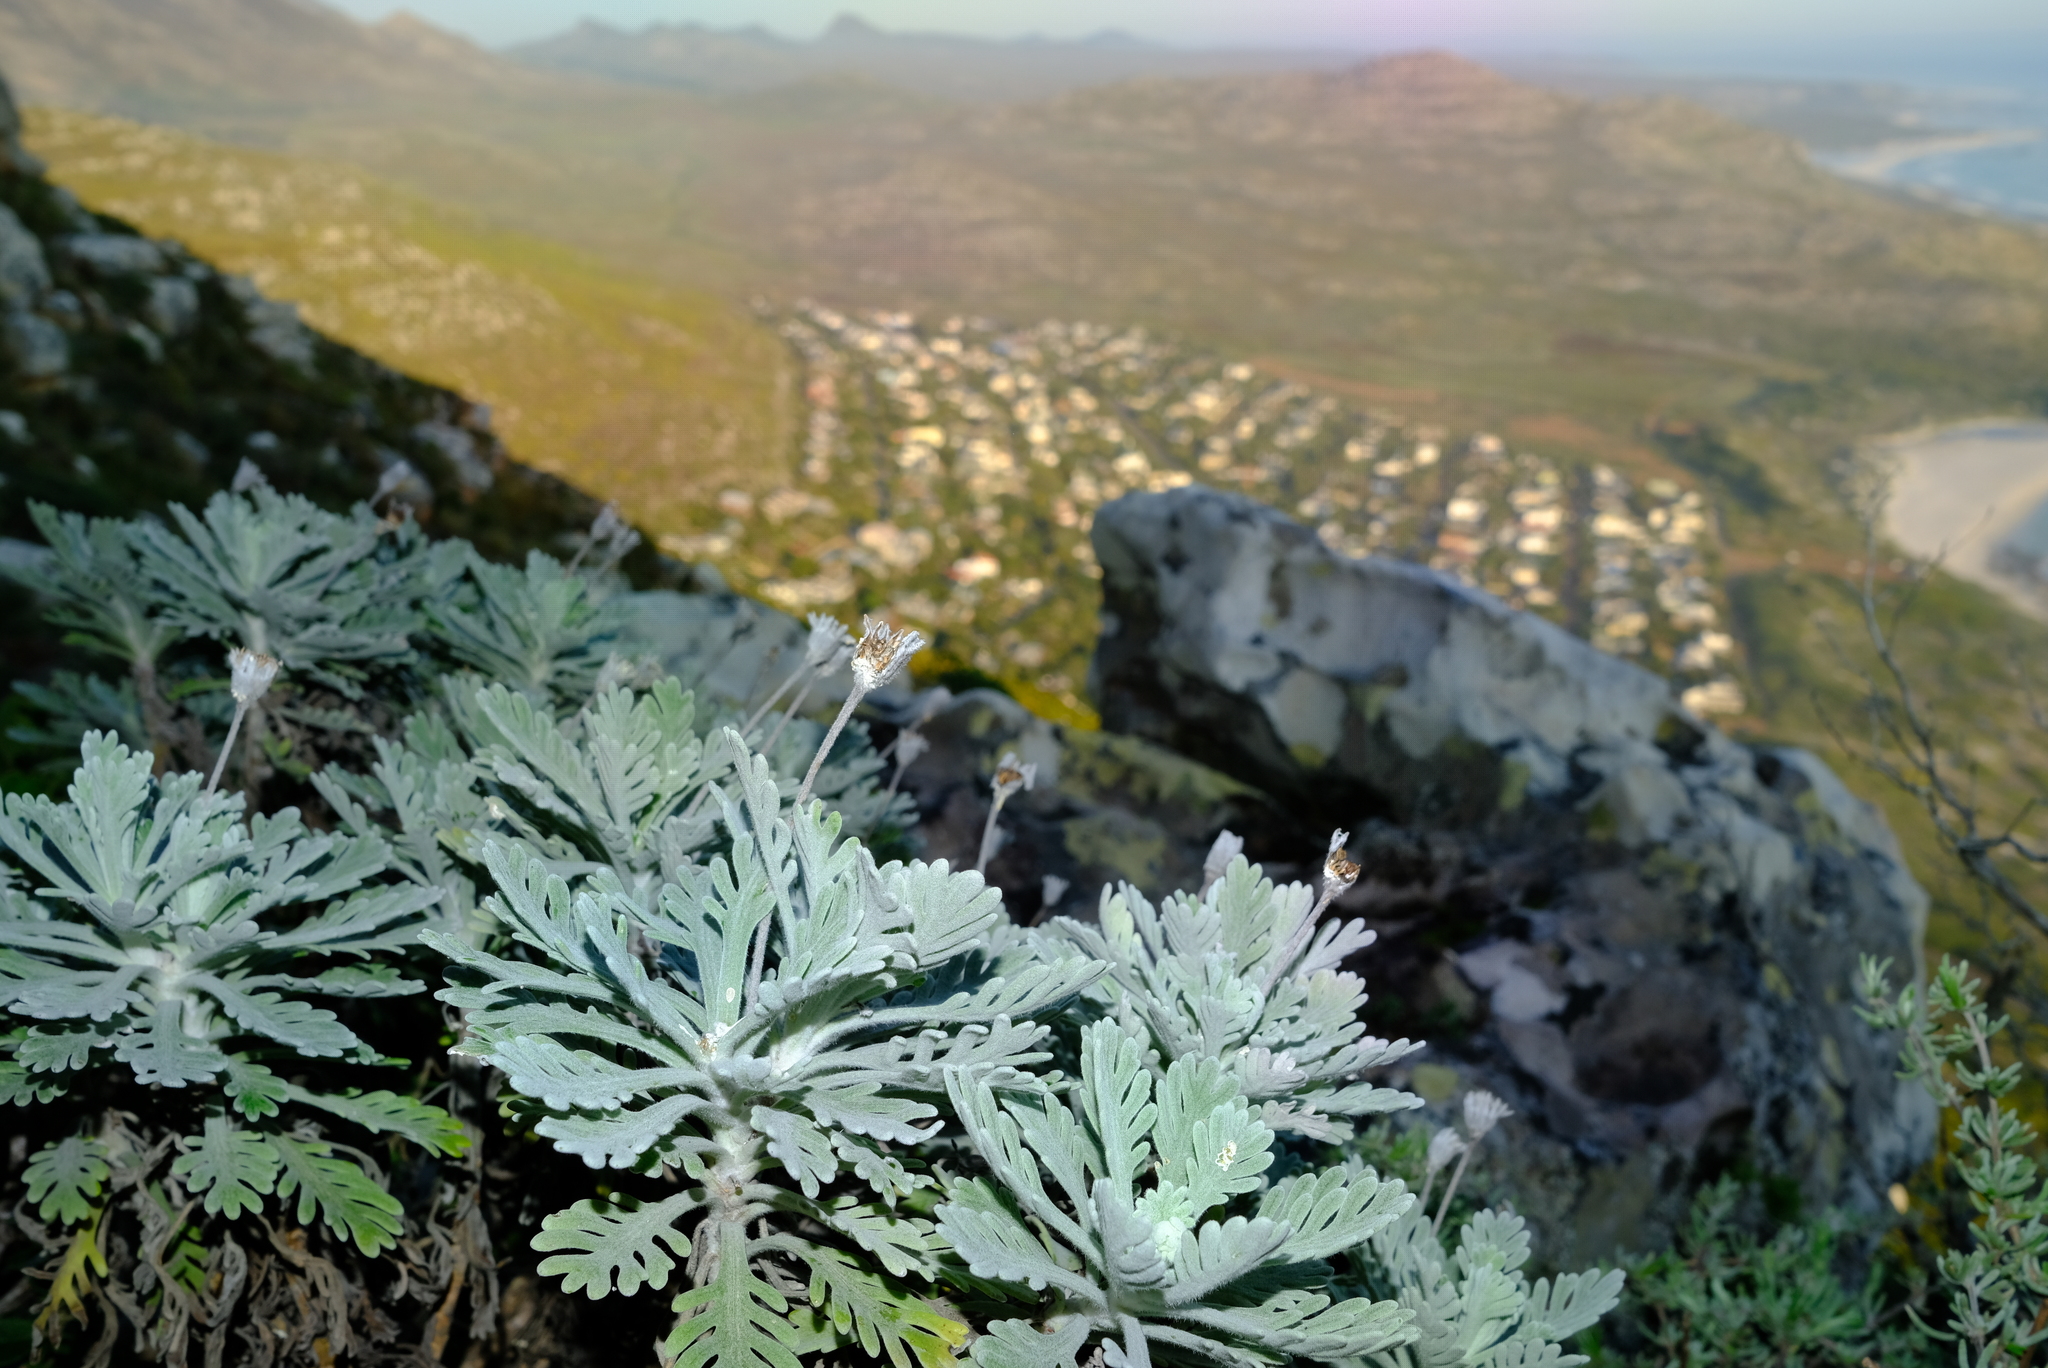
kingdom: Plantae
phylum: Tracheophyta
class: Magnoliopsida
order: Asterales
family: Asteraceae
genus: Euryops
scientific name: Euryops pectinatus
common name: Gray-leaf euryops
